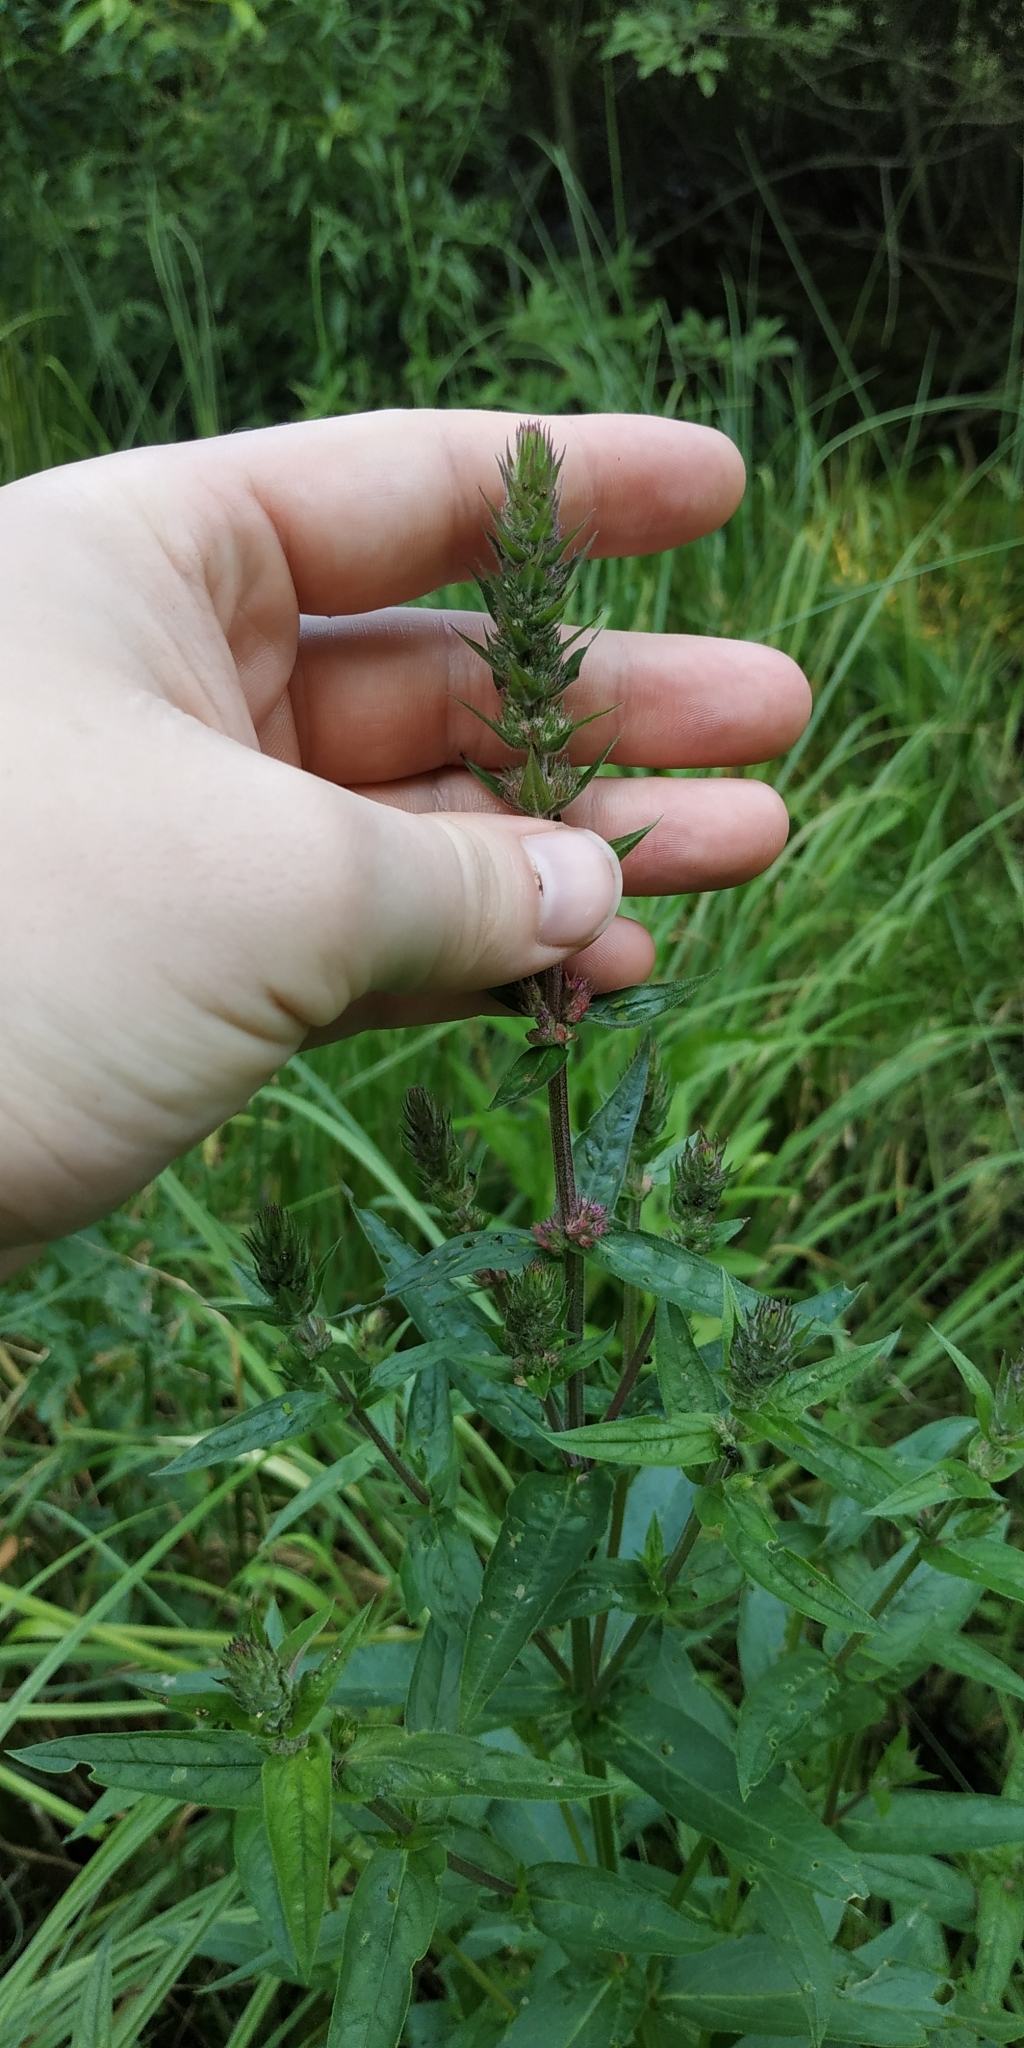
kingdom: Plantae
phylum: Tracheophyta
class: Magnoliopsida
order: Myrtales
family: Lythraceae
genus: Lythrum
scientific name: Lythrum salicaria
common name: Purple loosestrife
